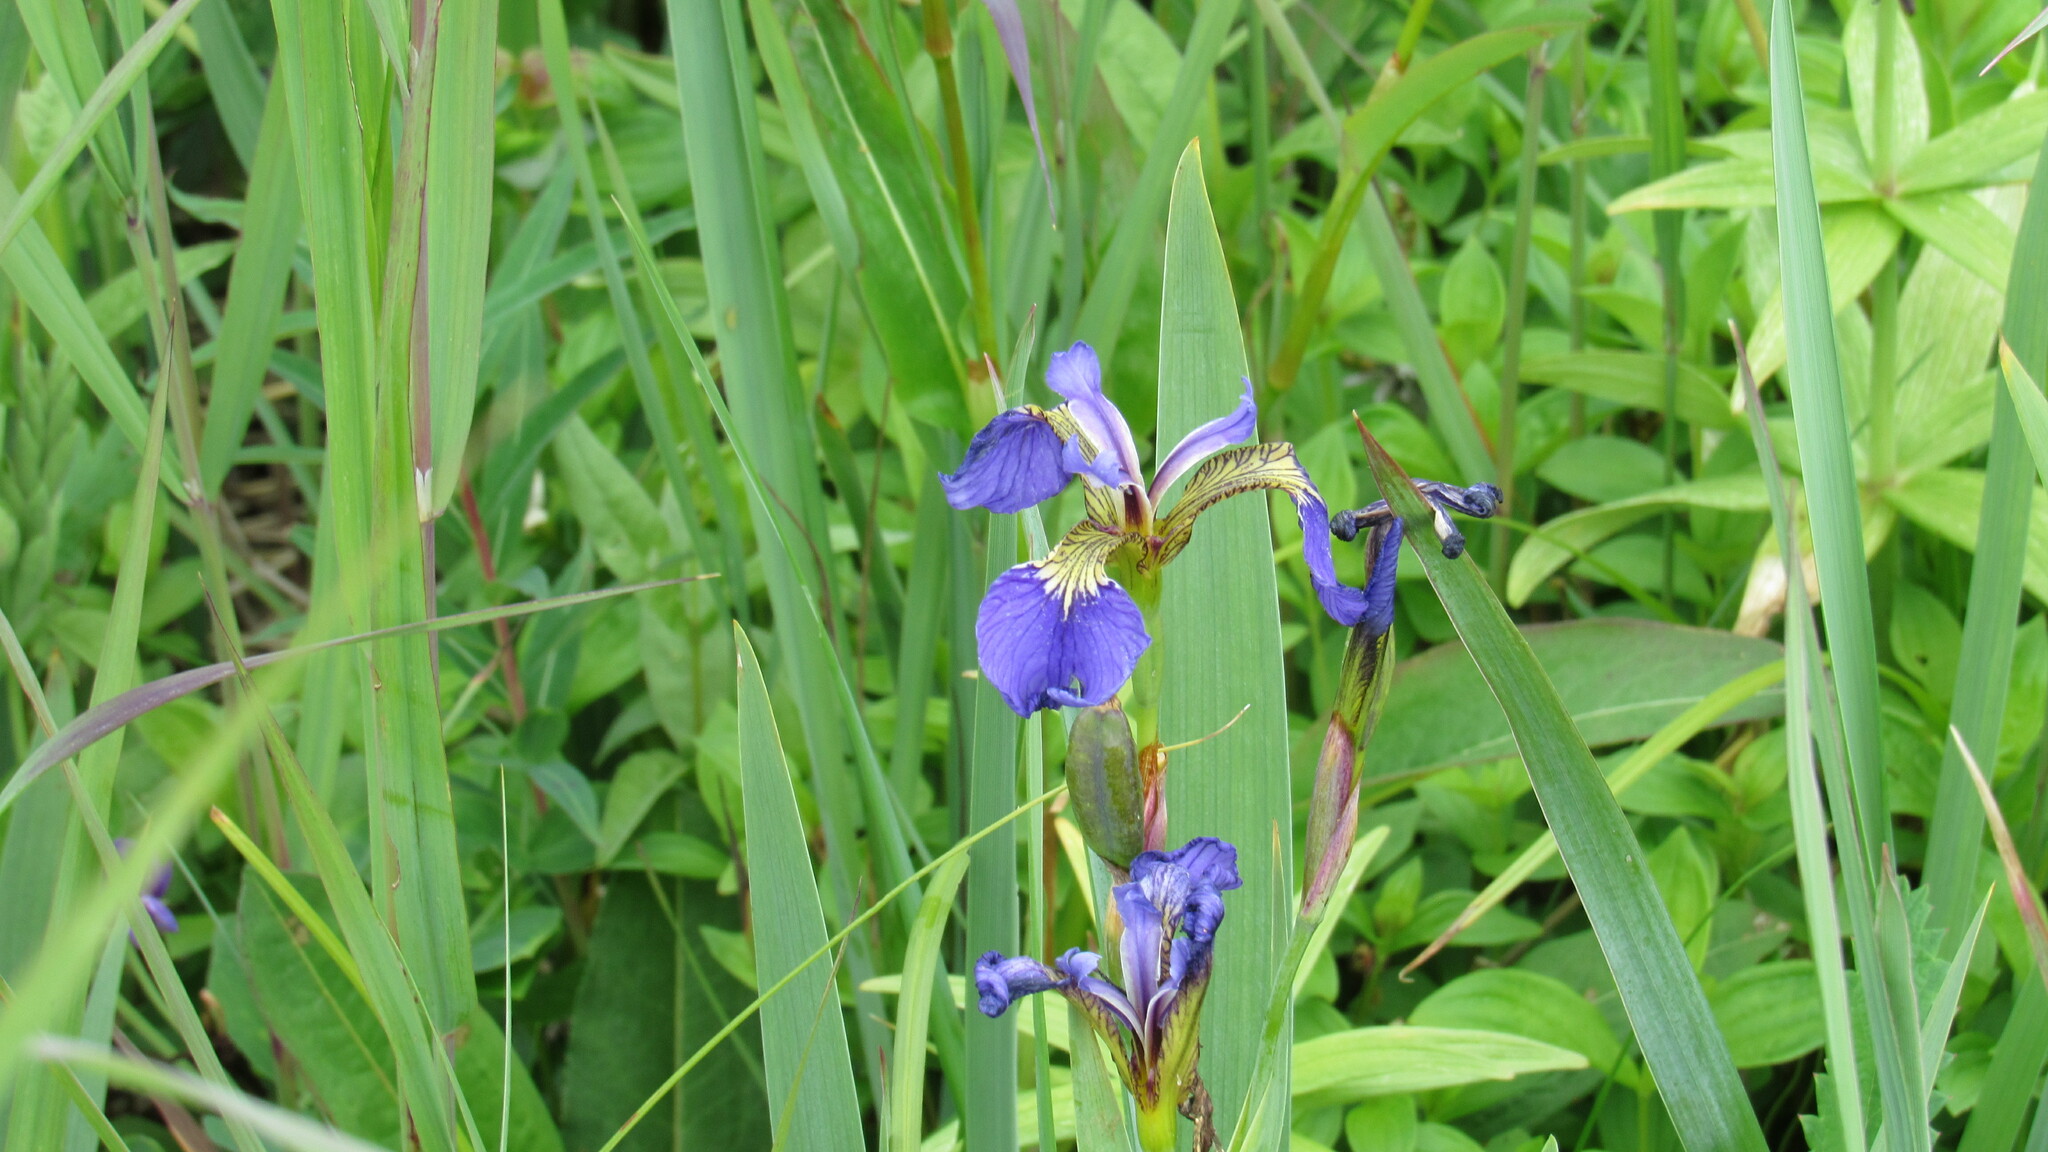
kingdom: Plantae
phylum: Tracheophyta
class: Liliopsida
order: Asparagales
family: Iridaceae
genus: Iris
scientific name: Iris setosa
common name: Arctic blue flag
